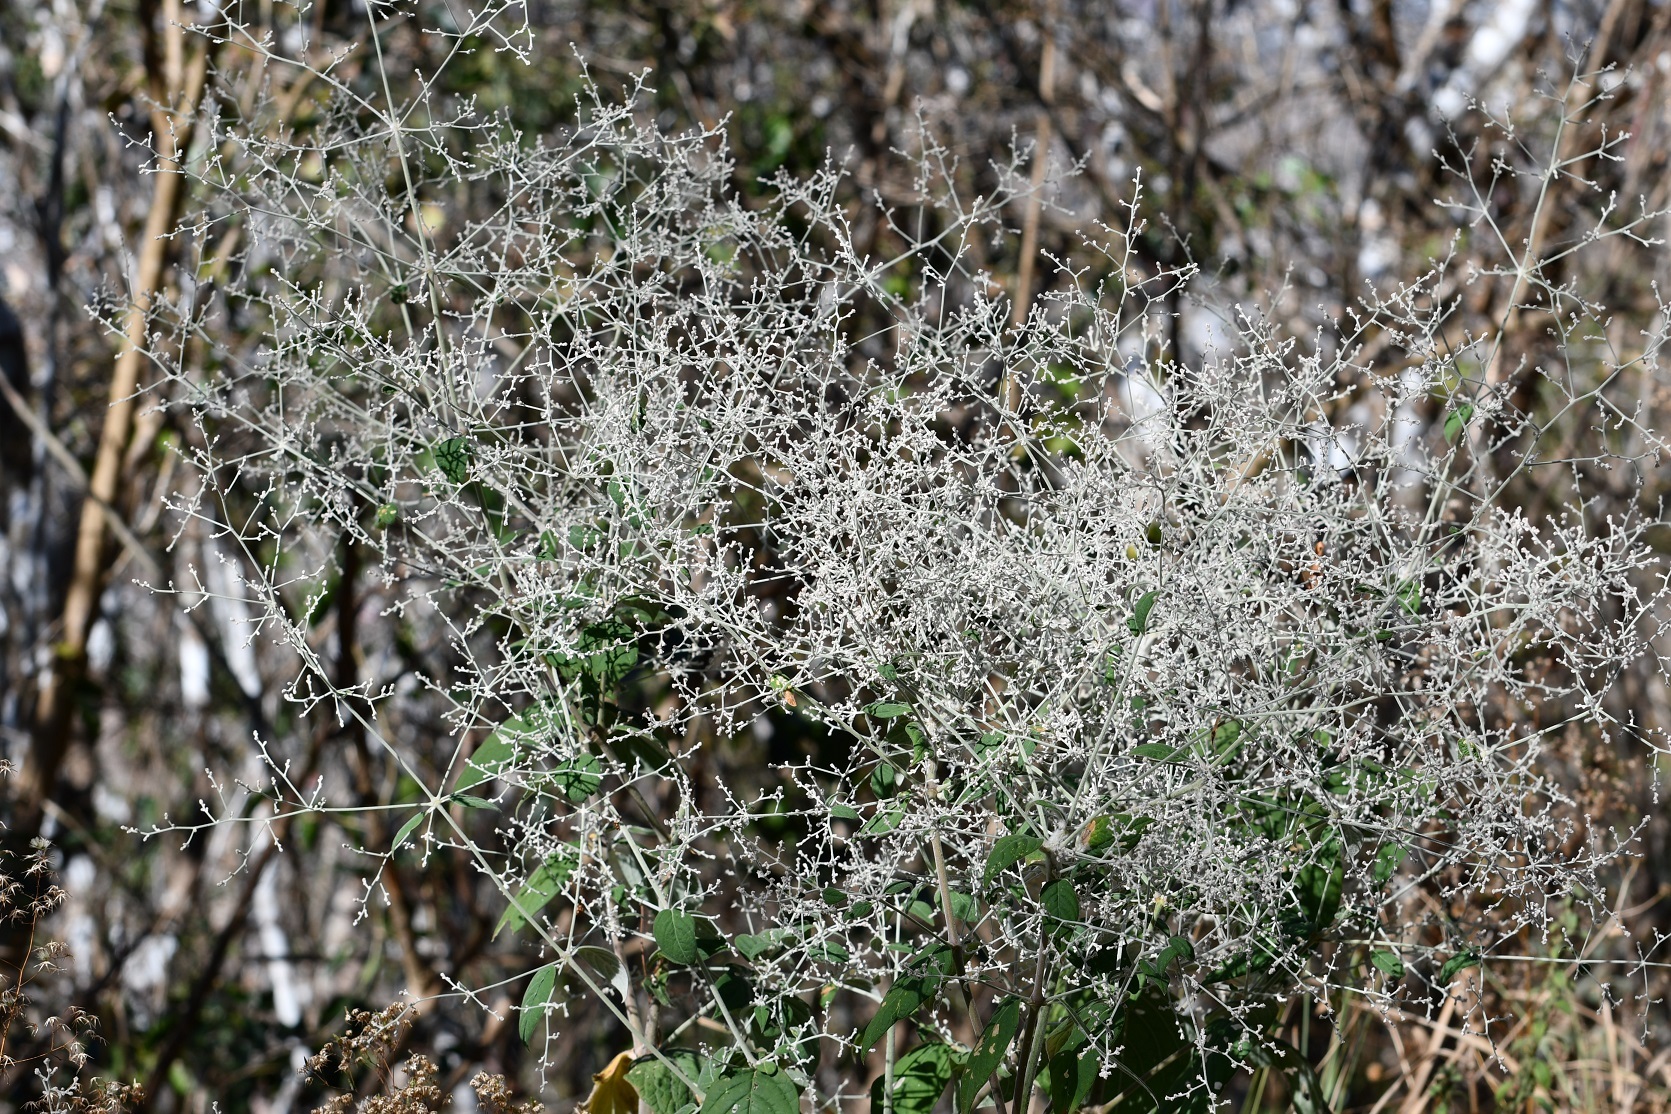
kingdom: Plantae
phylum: Tracheophyta
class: Magnoliopsida
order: Caryophyllales
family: Amaranthaceae
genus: Iresine
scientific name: Iresine latifolia
